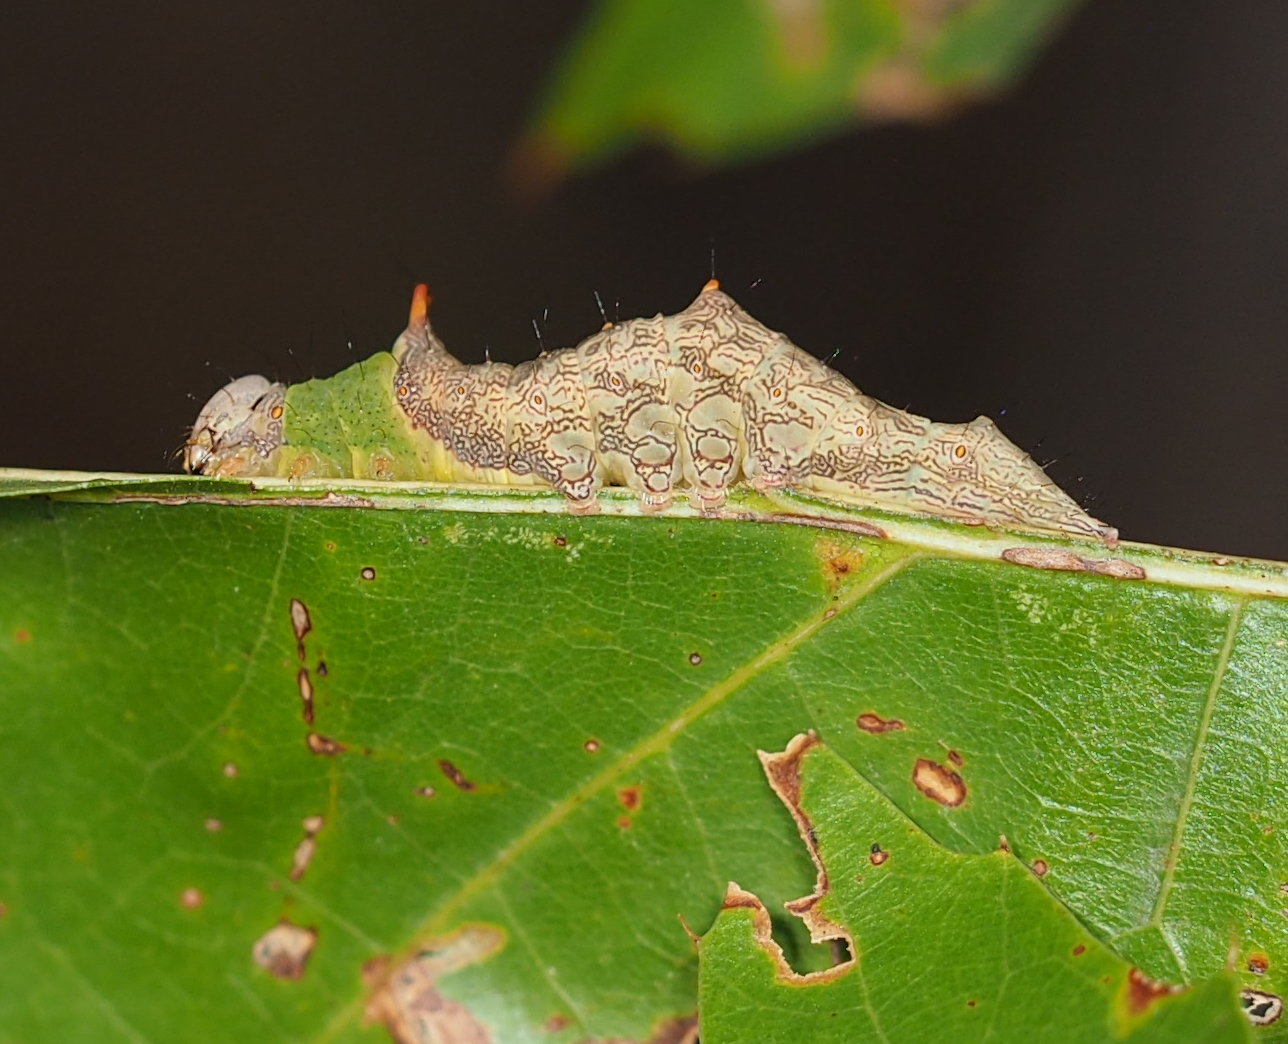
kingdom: Animalia
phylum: Arthropoda
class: Insecta
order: Lepidoptera
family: Notodontidae
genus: Schizura
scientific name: Schizura ipomaeae
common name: Morning-glory prominent
